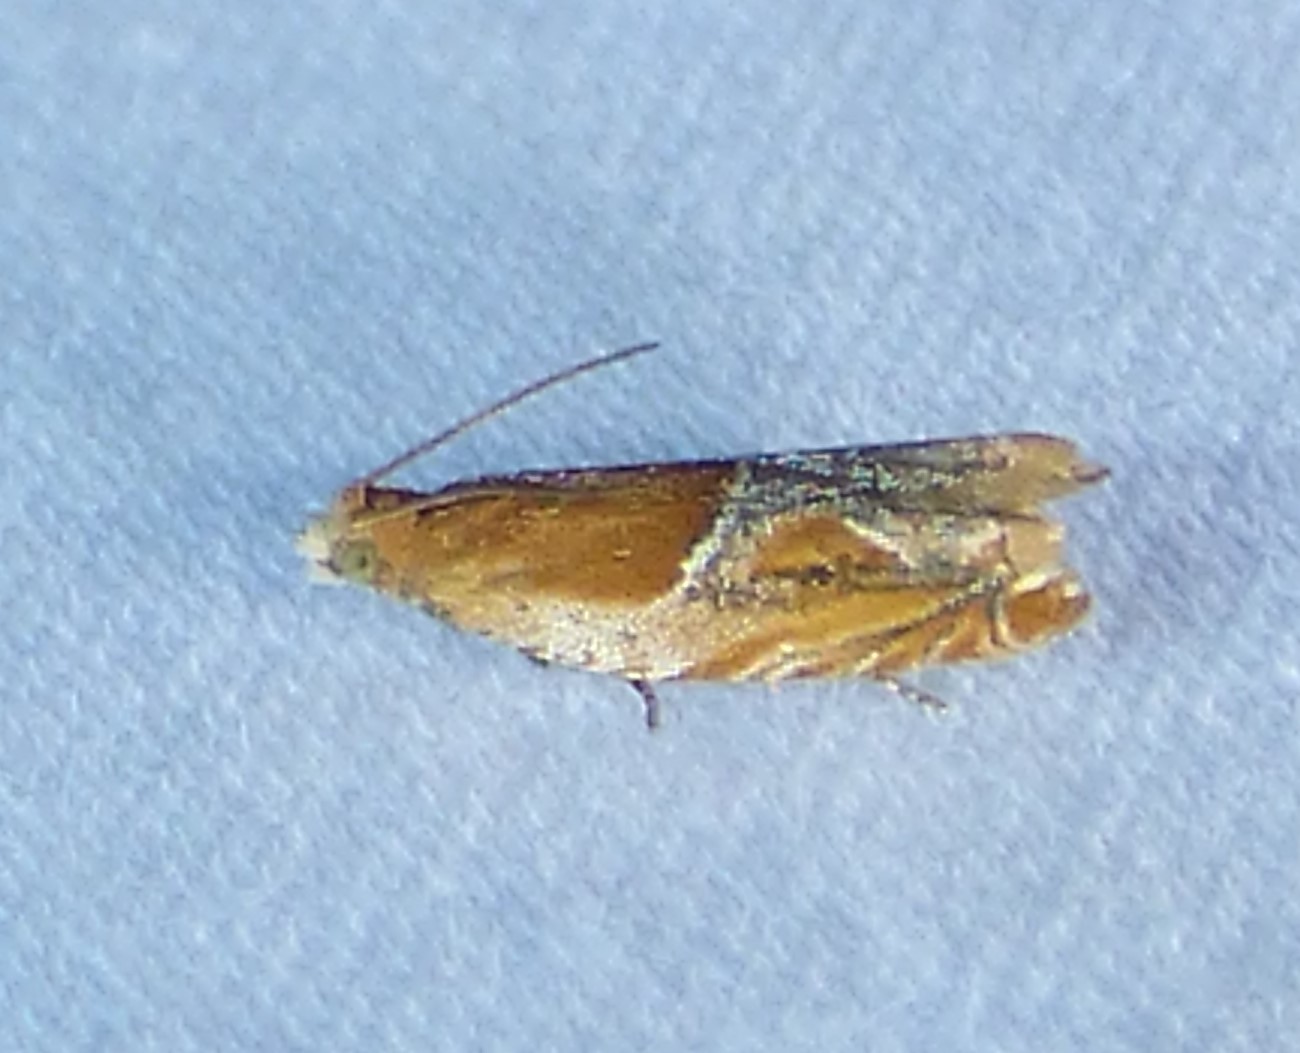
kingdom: Animalia
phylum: Arthropoda
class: Insecta
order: Lepidoptera
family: Tortricidae
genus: Ancylis
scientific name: Ancylis comptana
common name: Little roller
